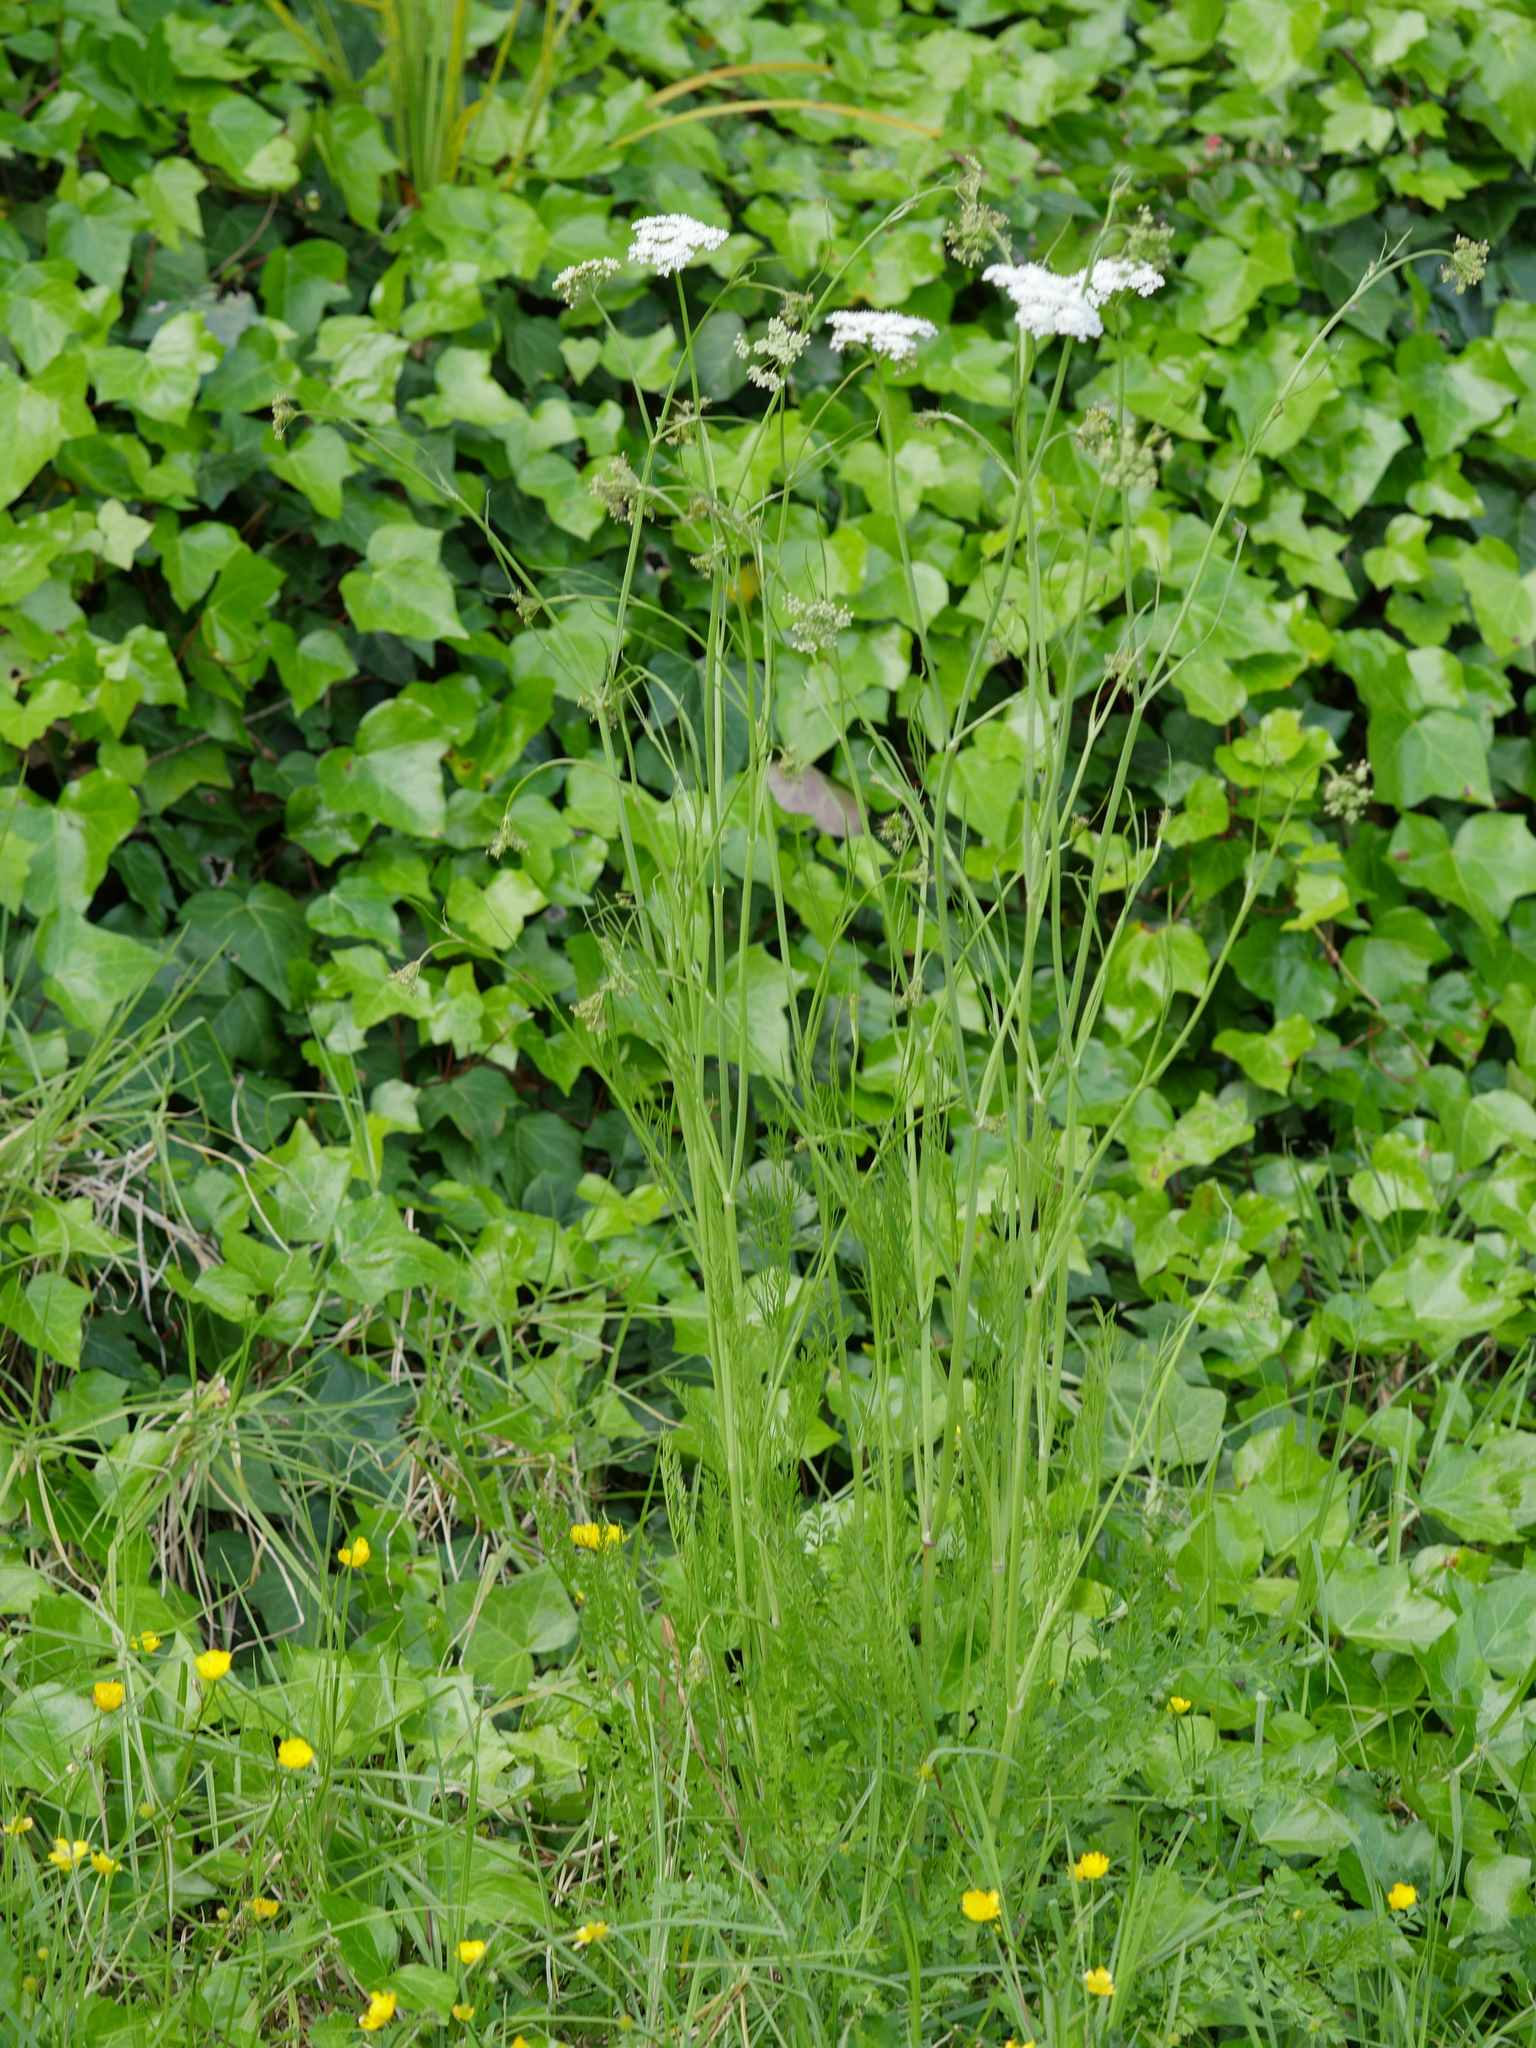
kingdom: Plantae
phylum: Tracheophyta
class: Magnoliopsida
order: Apiales
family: Apiaceae
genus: Oenanthe
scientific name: Oenanthe pimpinelloides
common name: Corky-fruited water-dropwort
